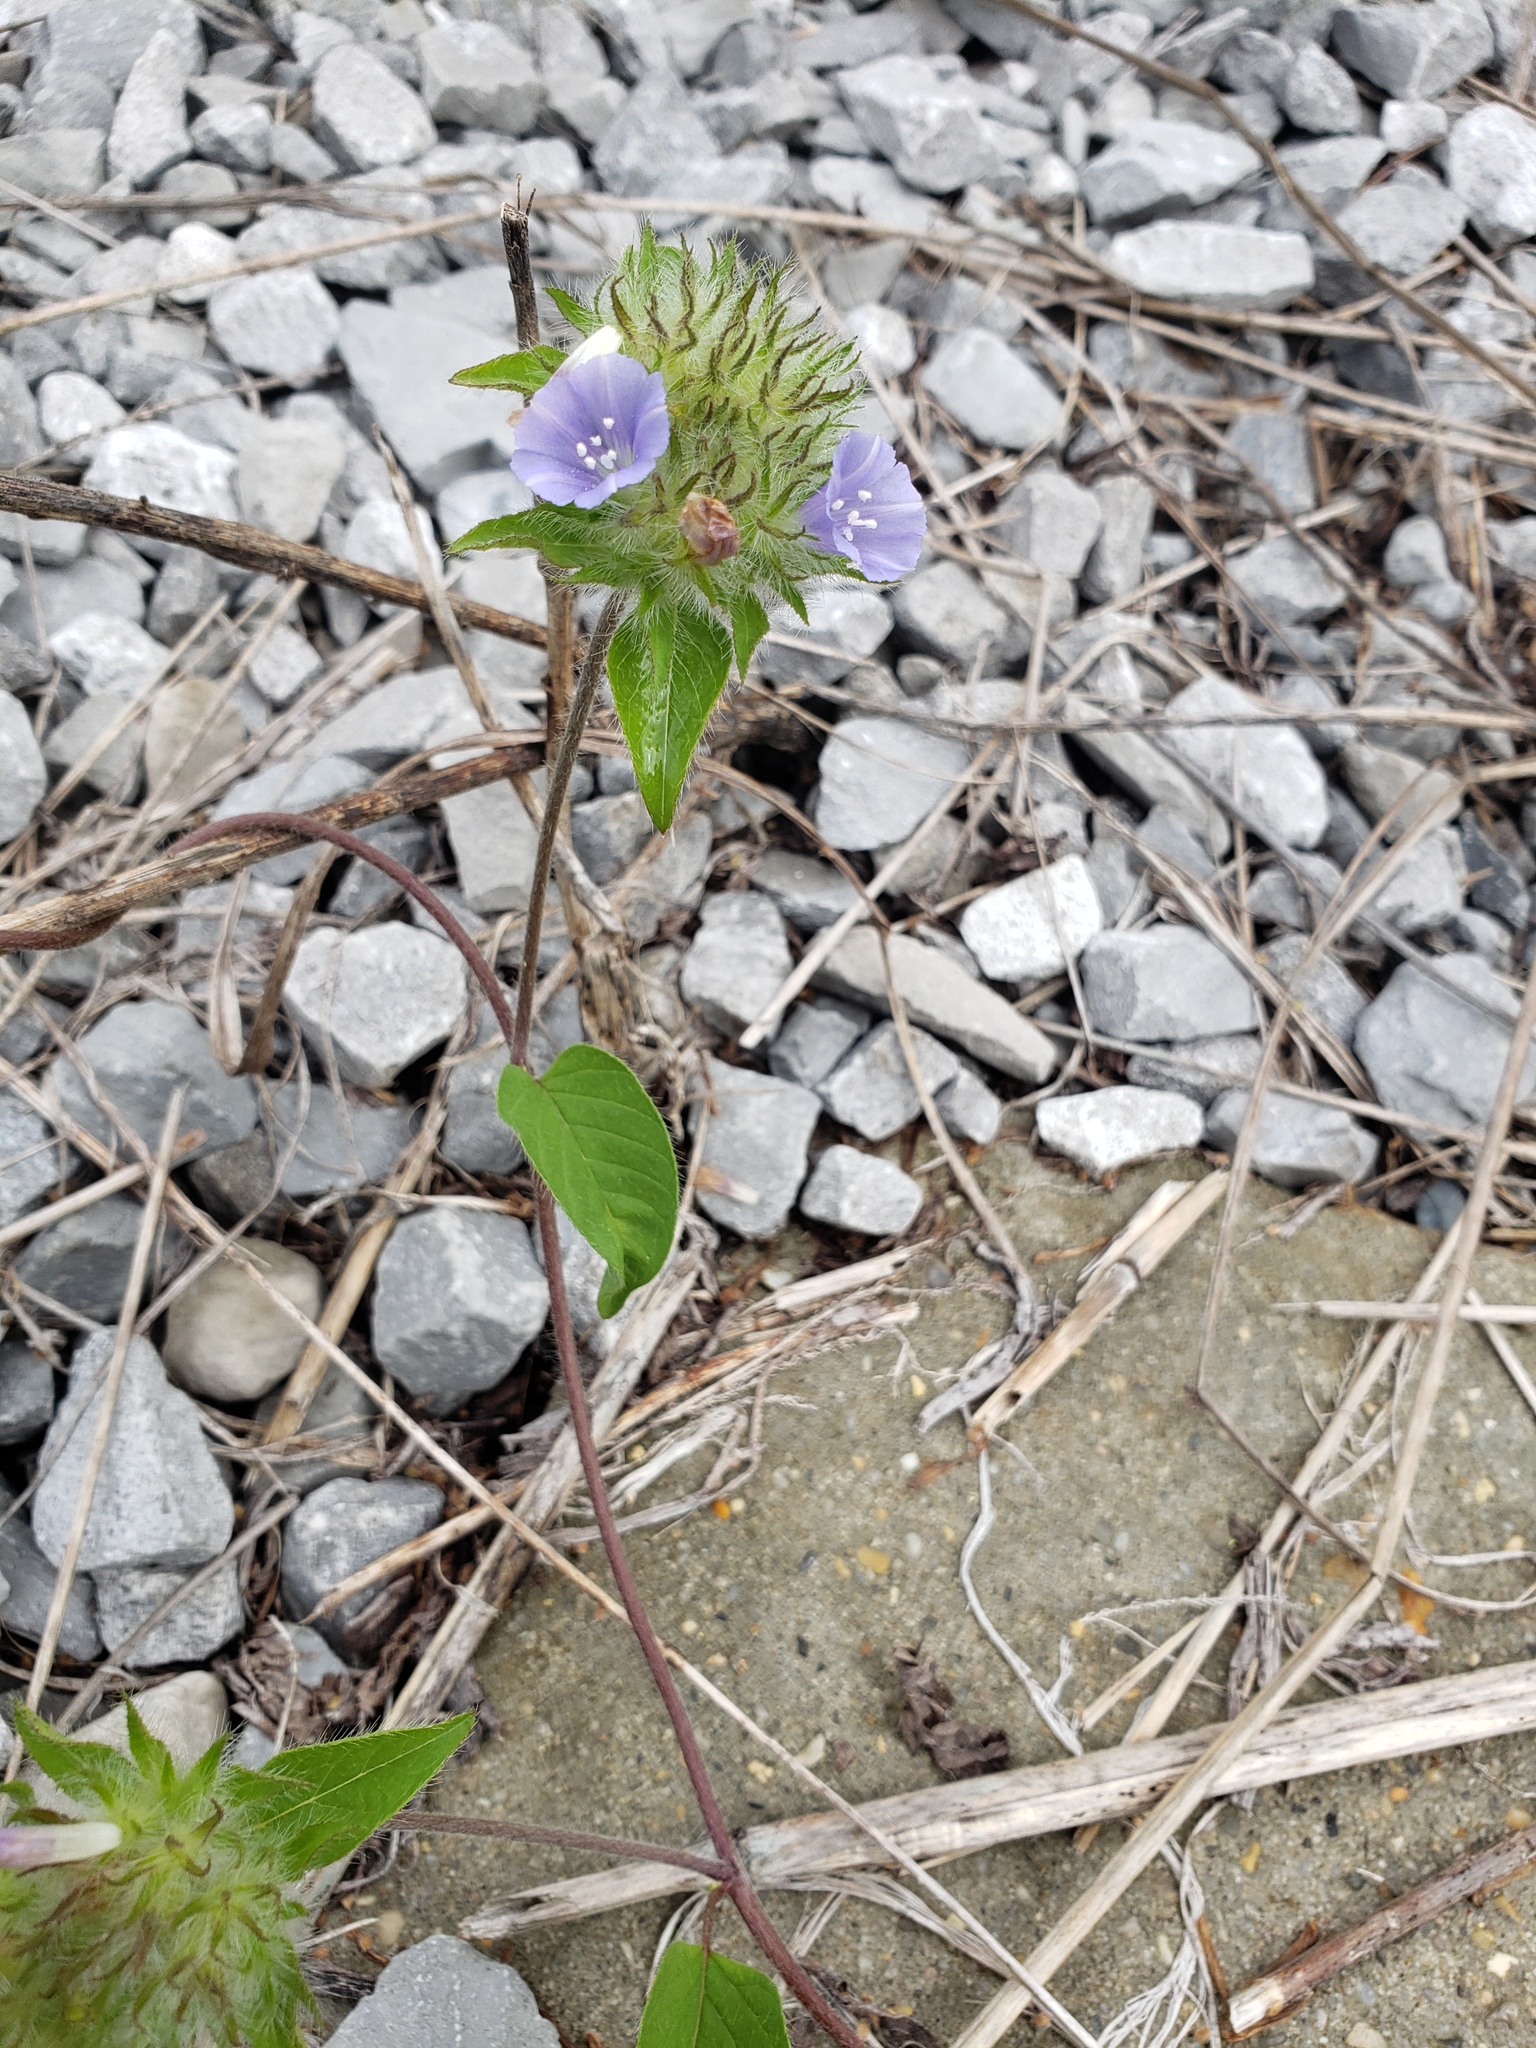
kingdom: Plantae
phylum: Tracheophyta
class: Magnoliopsida
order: Solanales
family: Convolvulaceae
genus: Jacquemontia
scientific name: Jacquemontia tamnifolia
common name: Hairy clustervine
